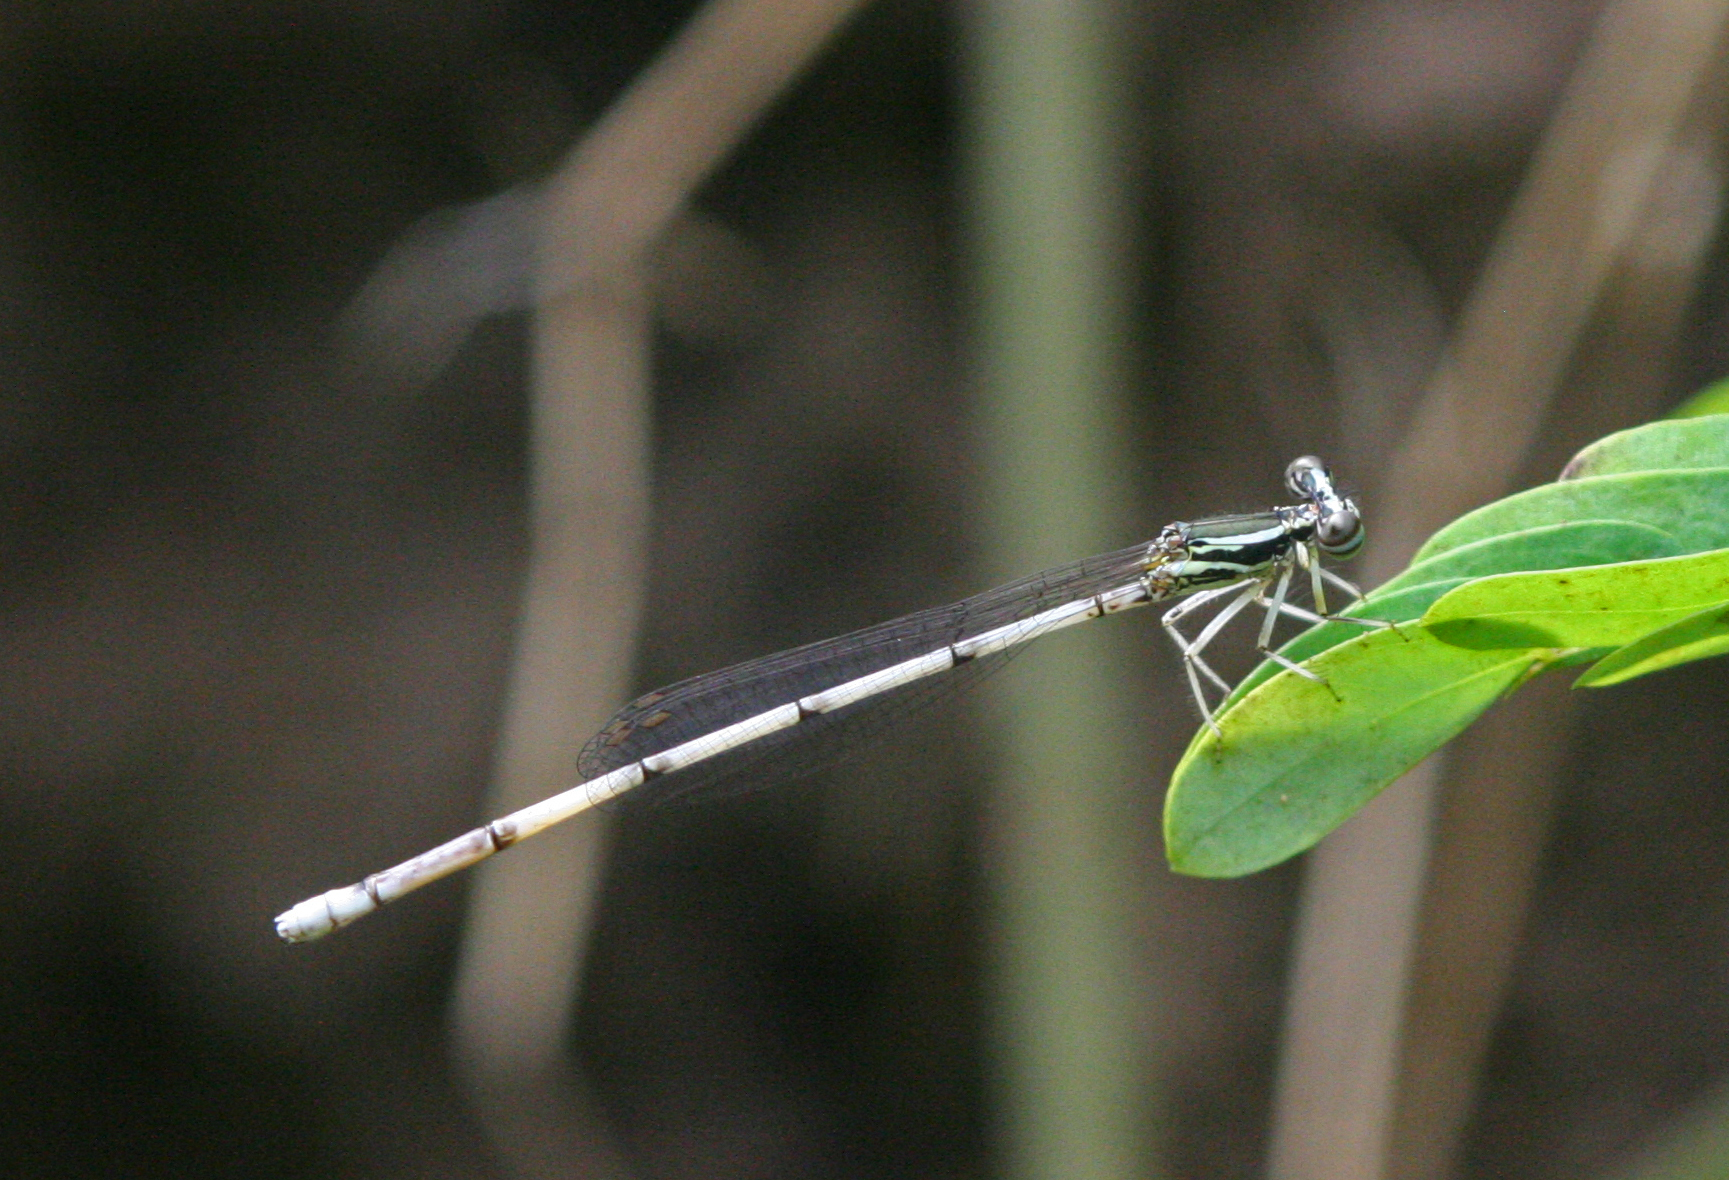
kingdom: Animalia
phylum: Arthropoda
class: Insecta
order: Odonata
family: Platycnemididae
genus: Copera
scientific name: Copera marginipes
